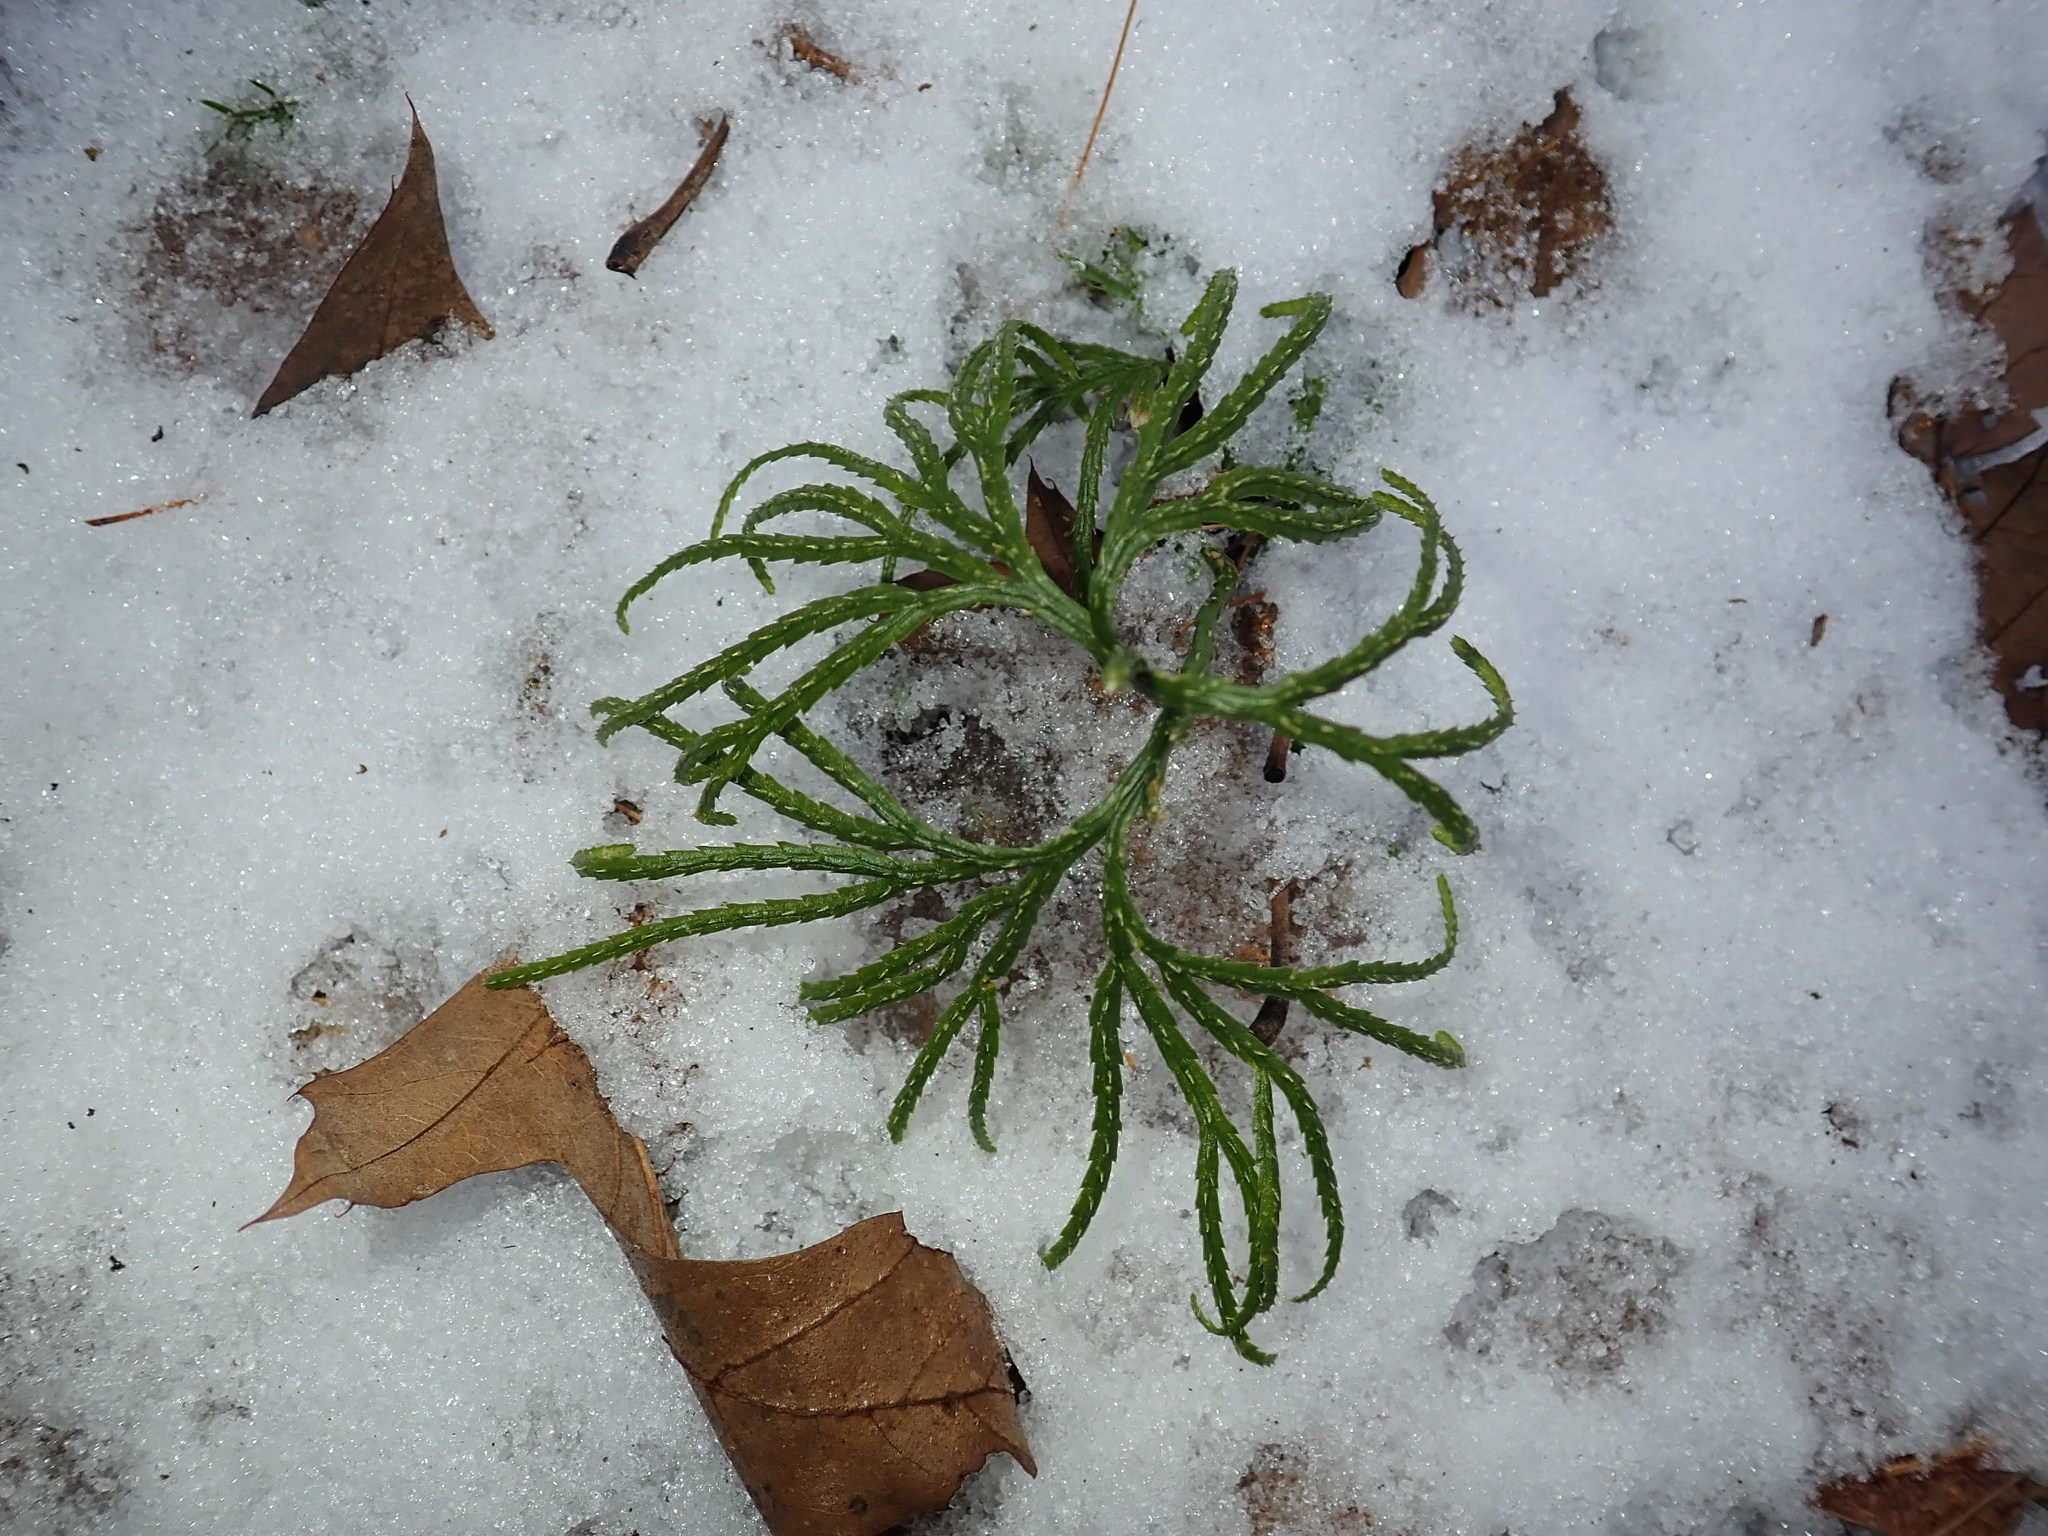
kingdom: Plantae
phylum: Tracheophyta
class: Lycopodiopsida
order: Lycopodiales
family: Lycopodiaceae
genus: Diphasiastrum
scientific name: Diphasiastrum digitatum
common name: Southern running-pine
